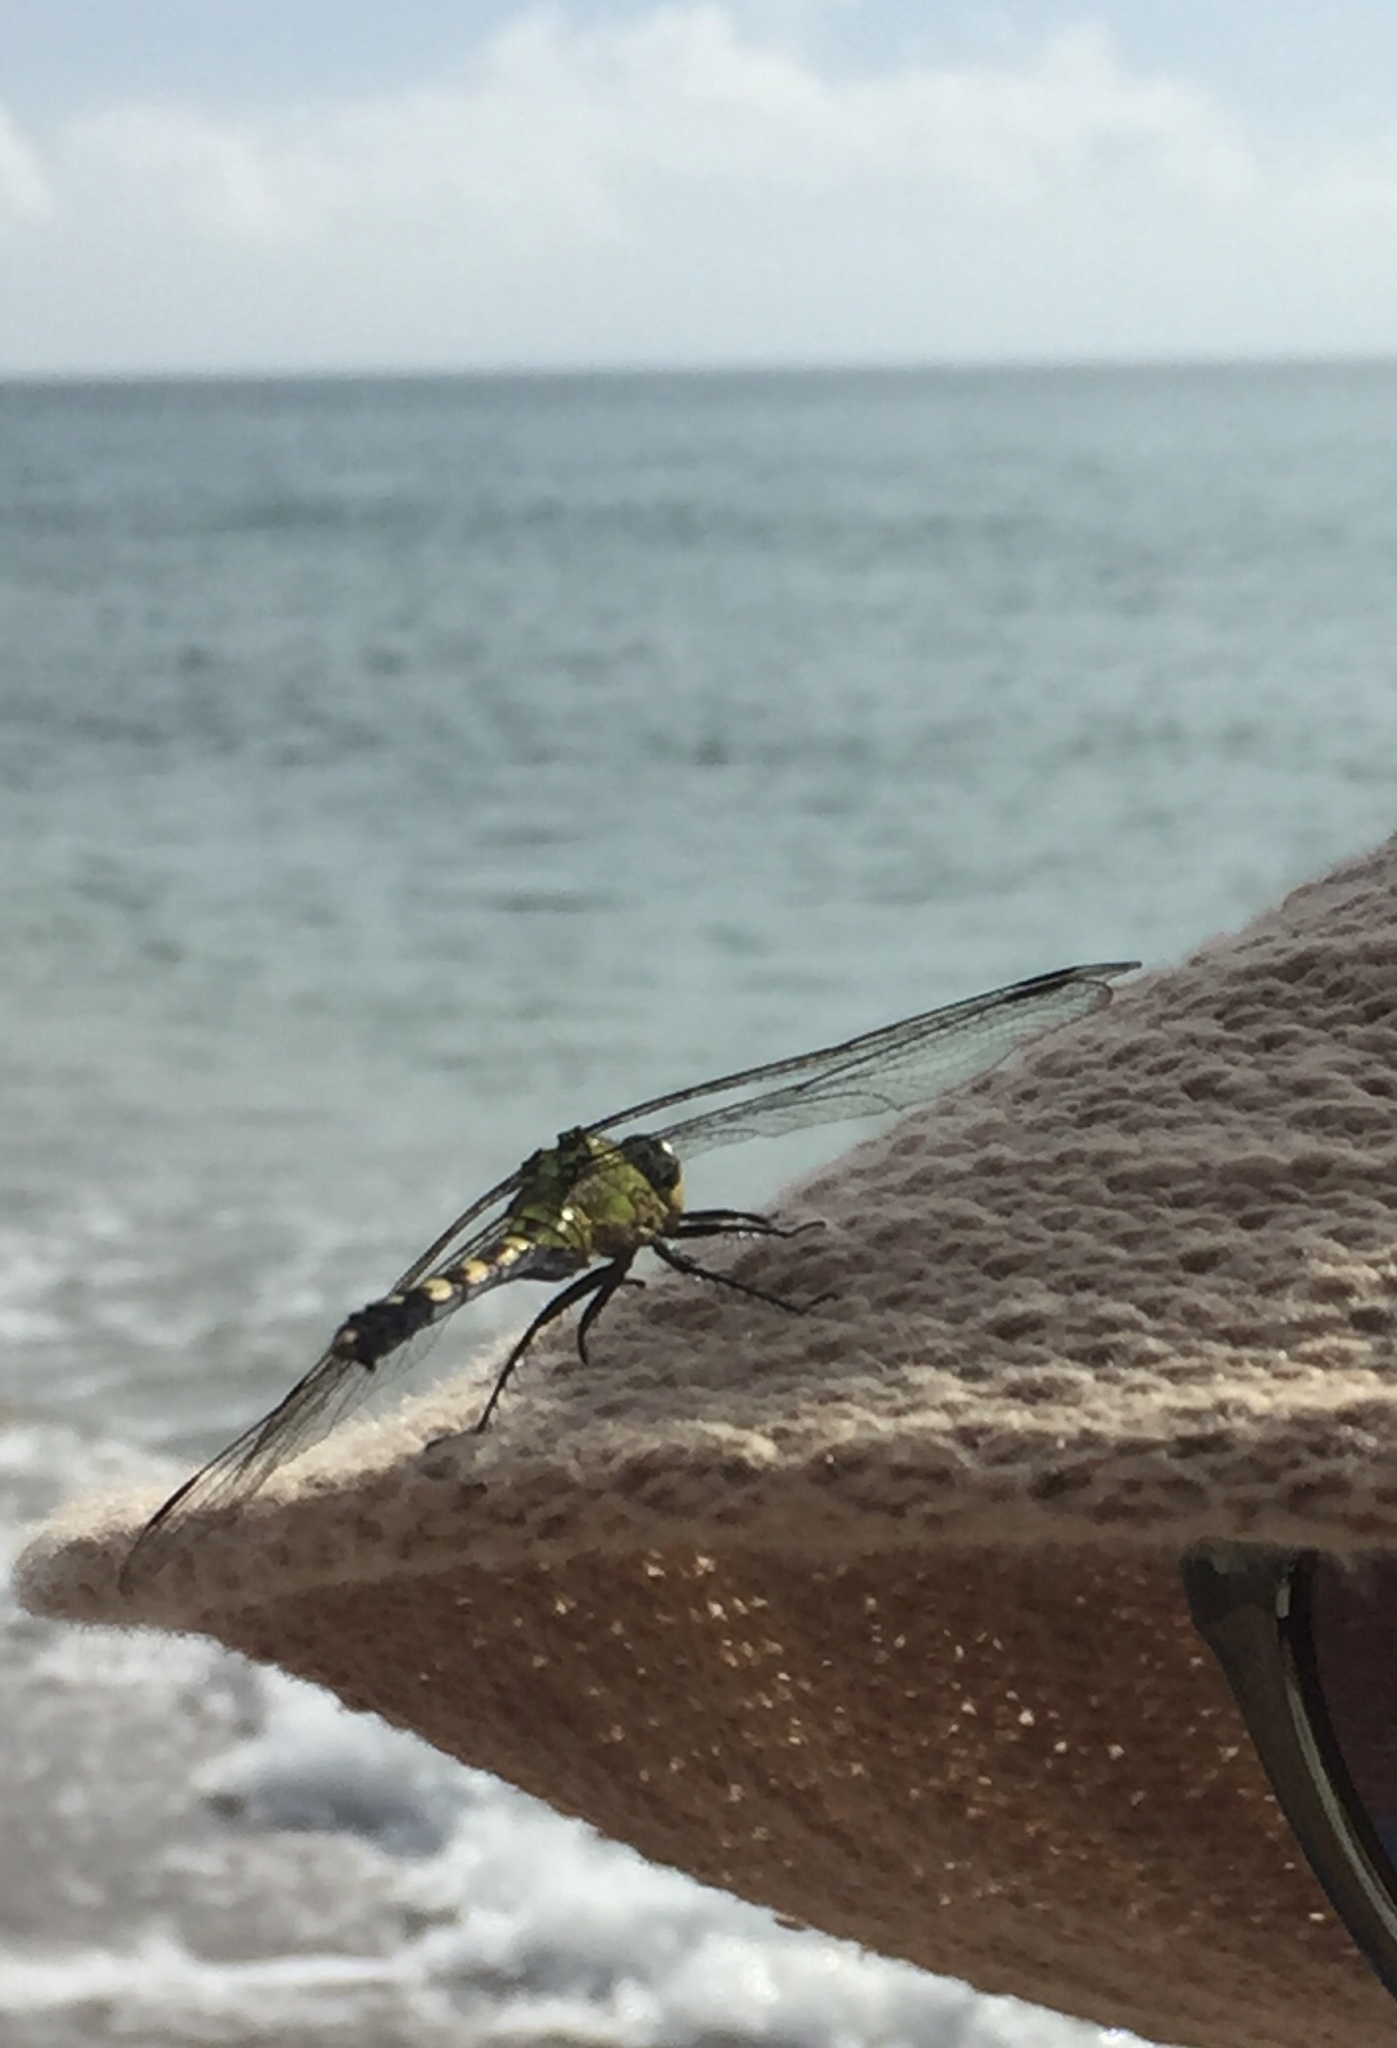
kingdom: Animalia
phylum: Arthropoda
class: Insecta
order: Odonata
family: Libellulidae
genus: Erythemis
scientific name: Erythemis simplicicollis
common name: Eastern pondhawk
